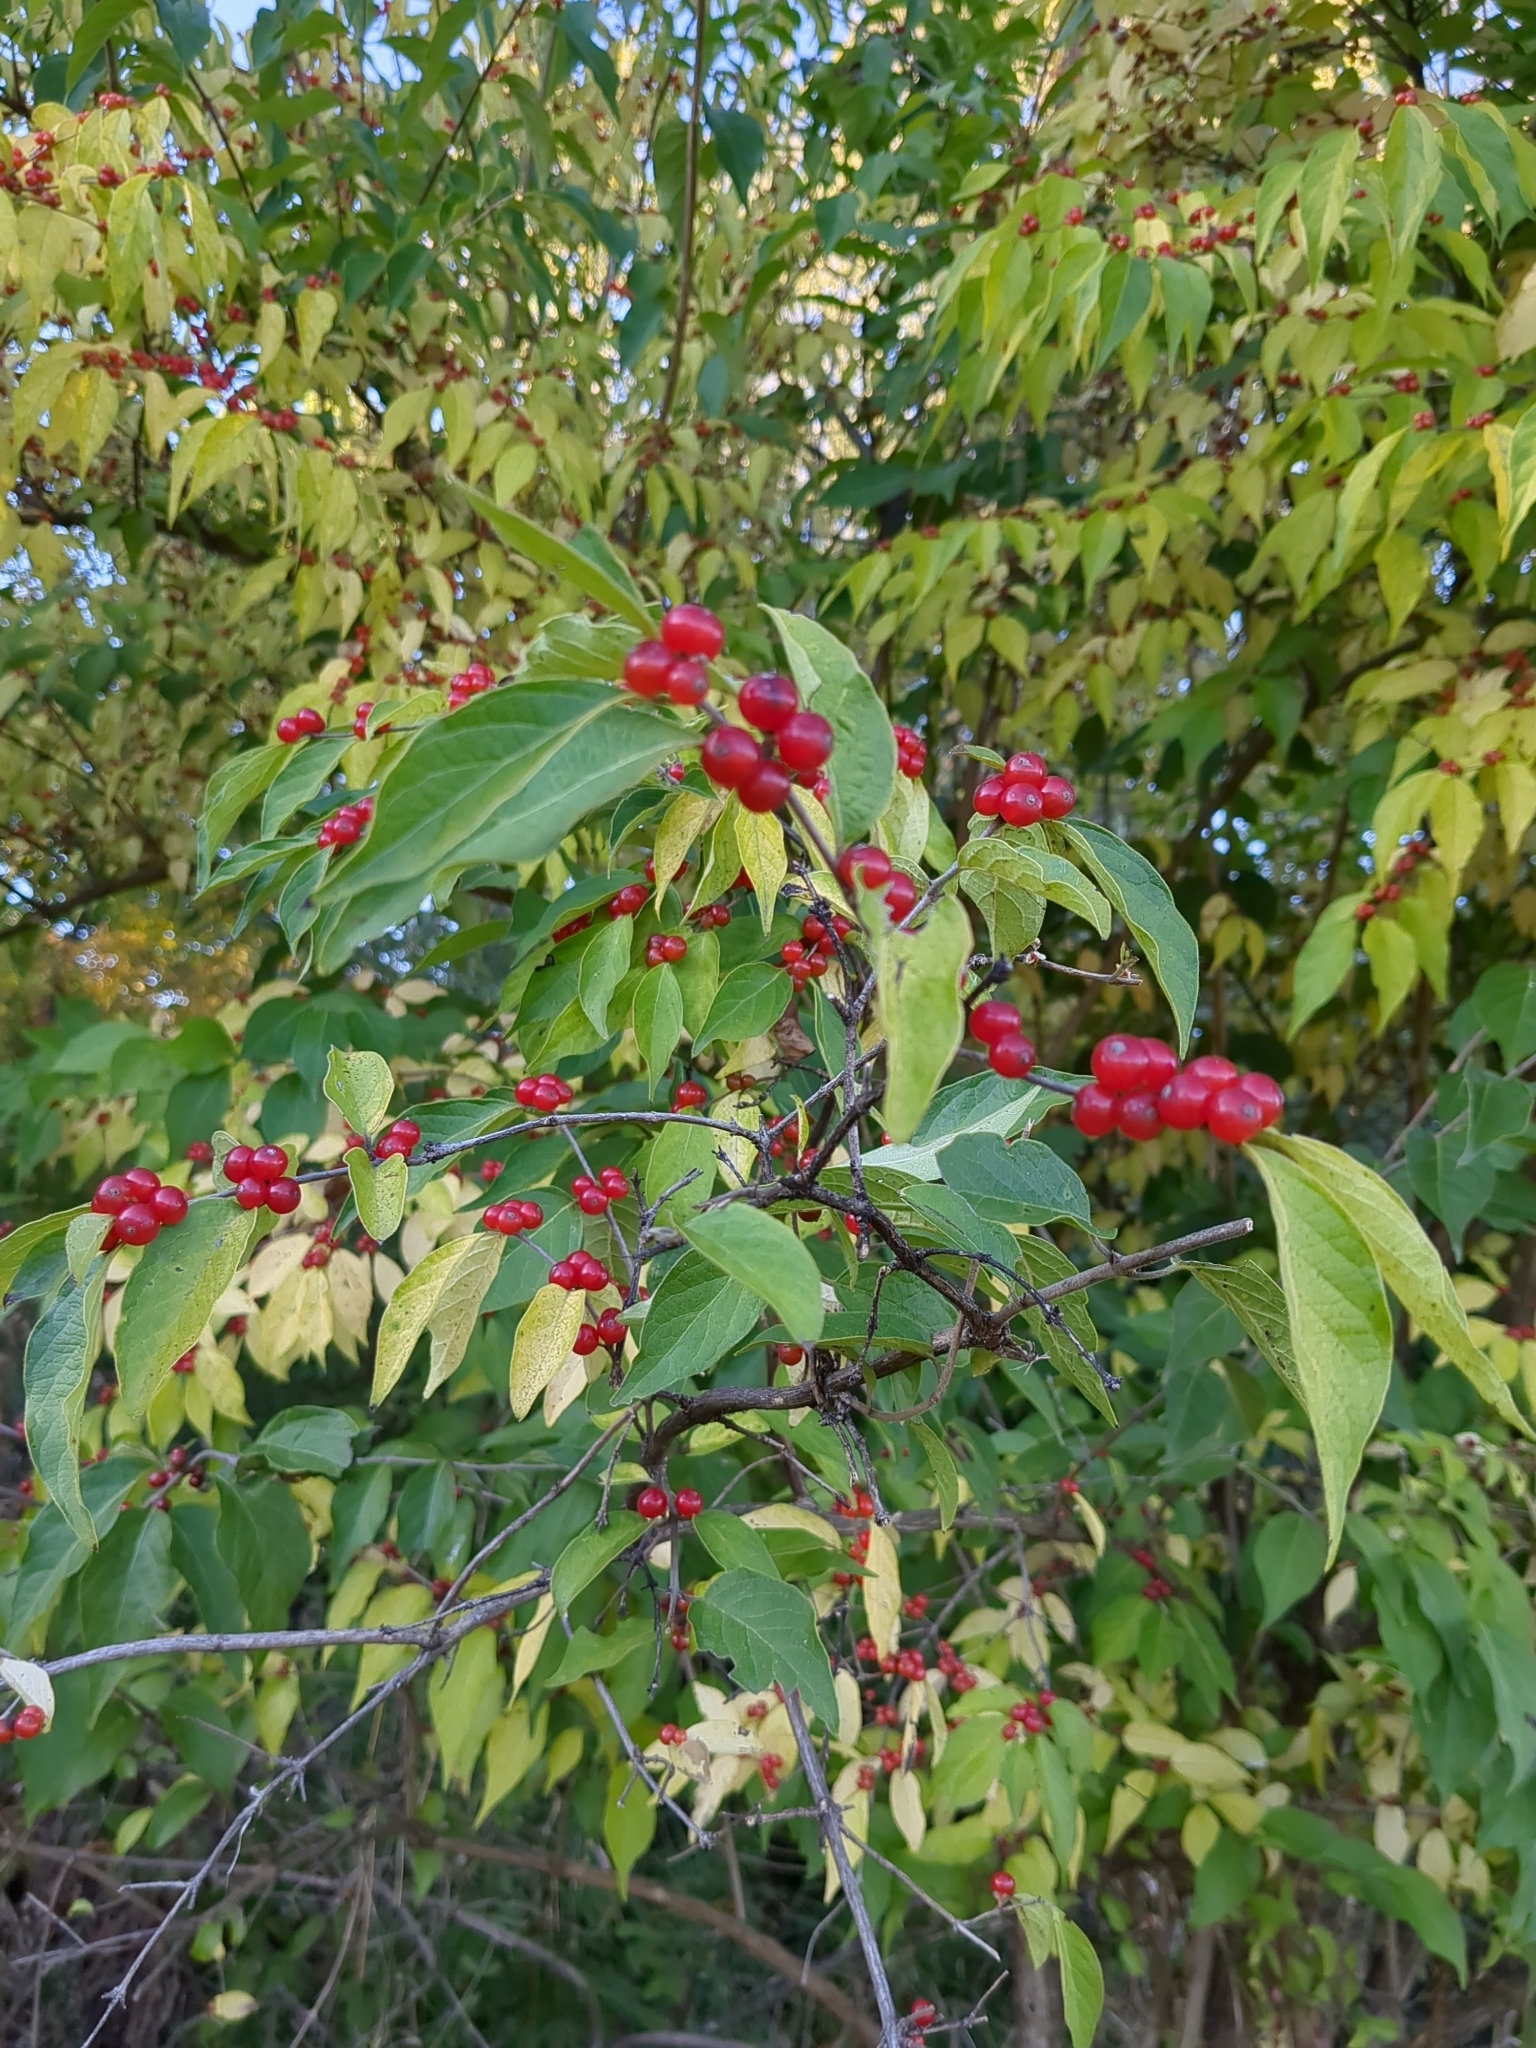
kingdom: Plantae
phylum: Tracheophyta
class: Magnoliopsida
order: Dipsacales
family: Caprifoliaceae
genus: Lonicera
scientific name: Lonicera maackii
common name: Amur honeysuckle
